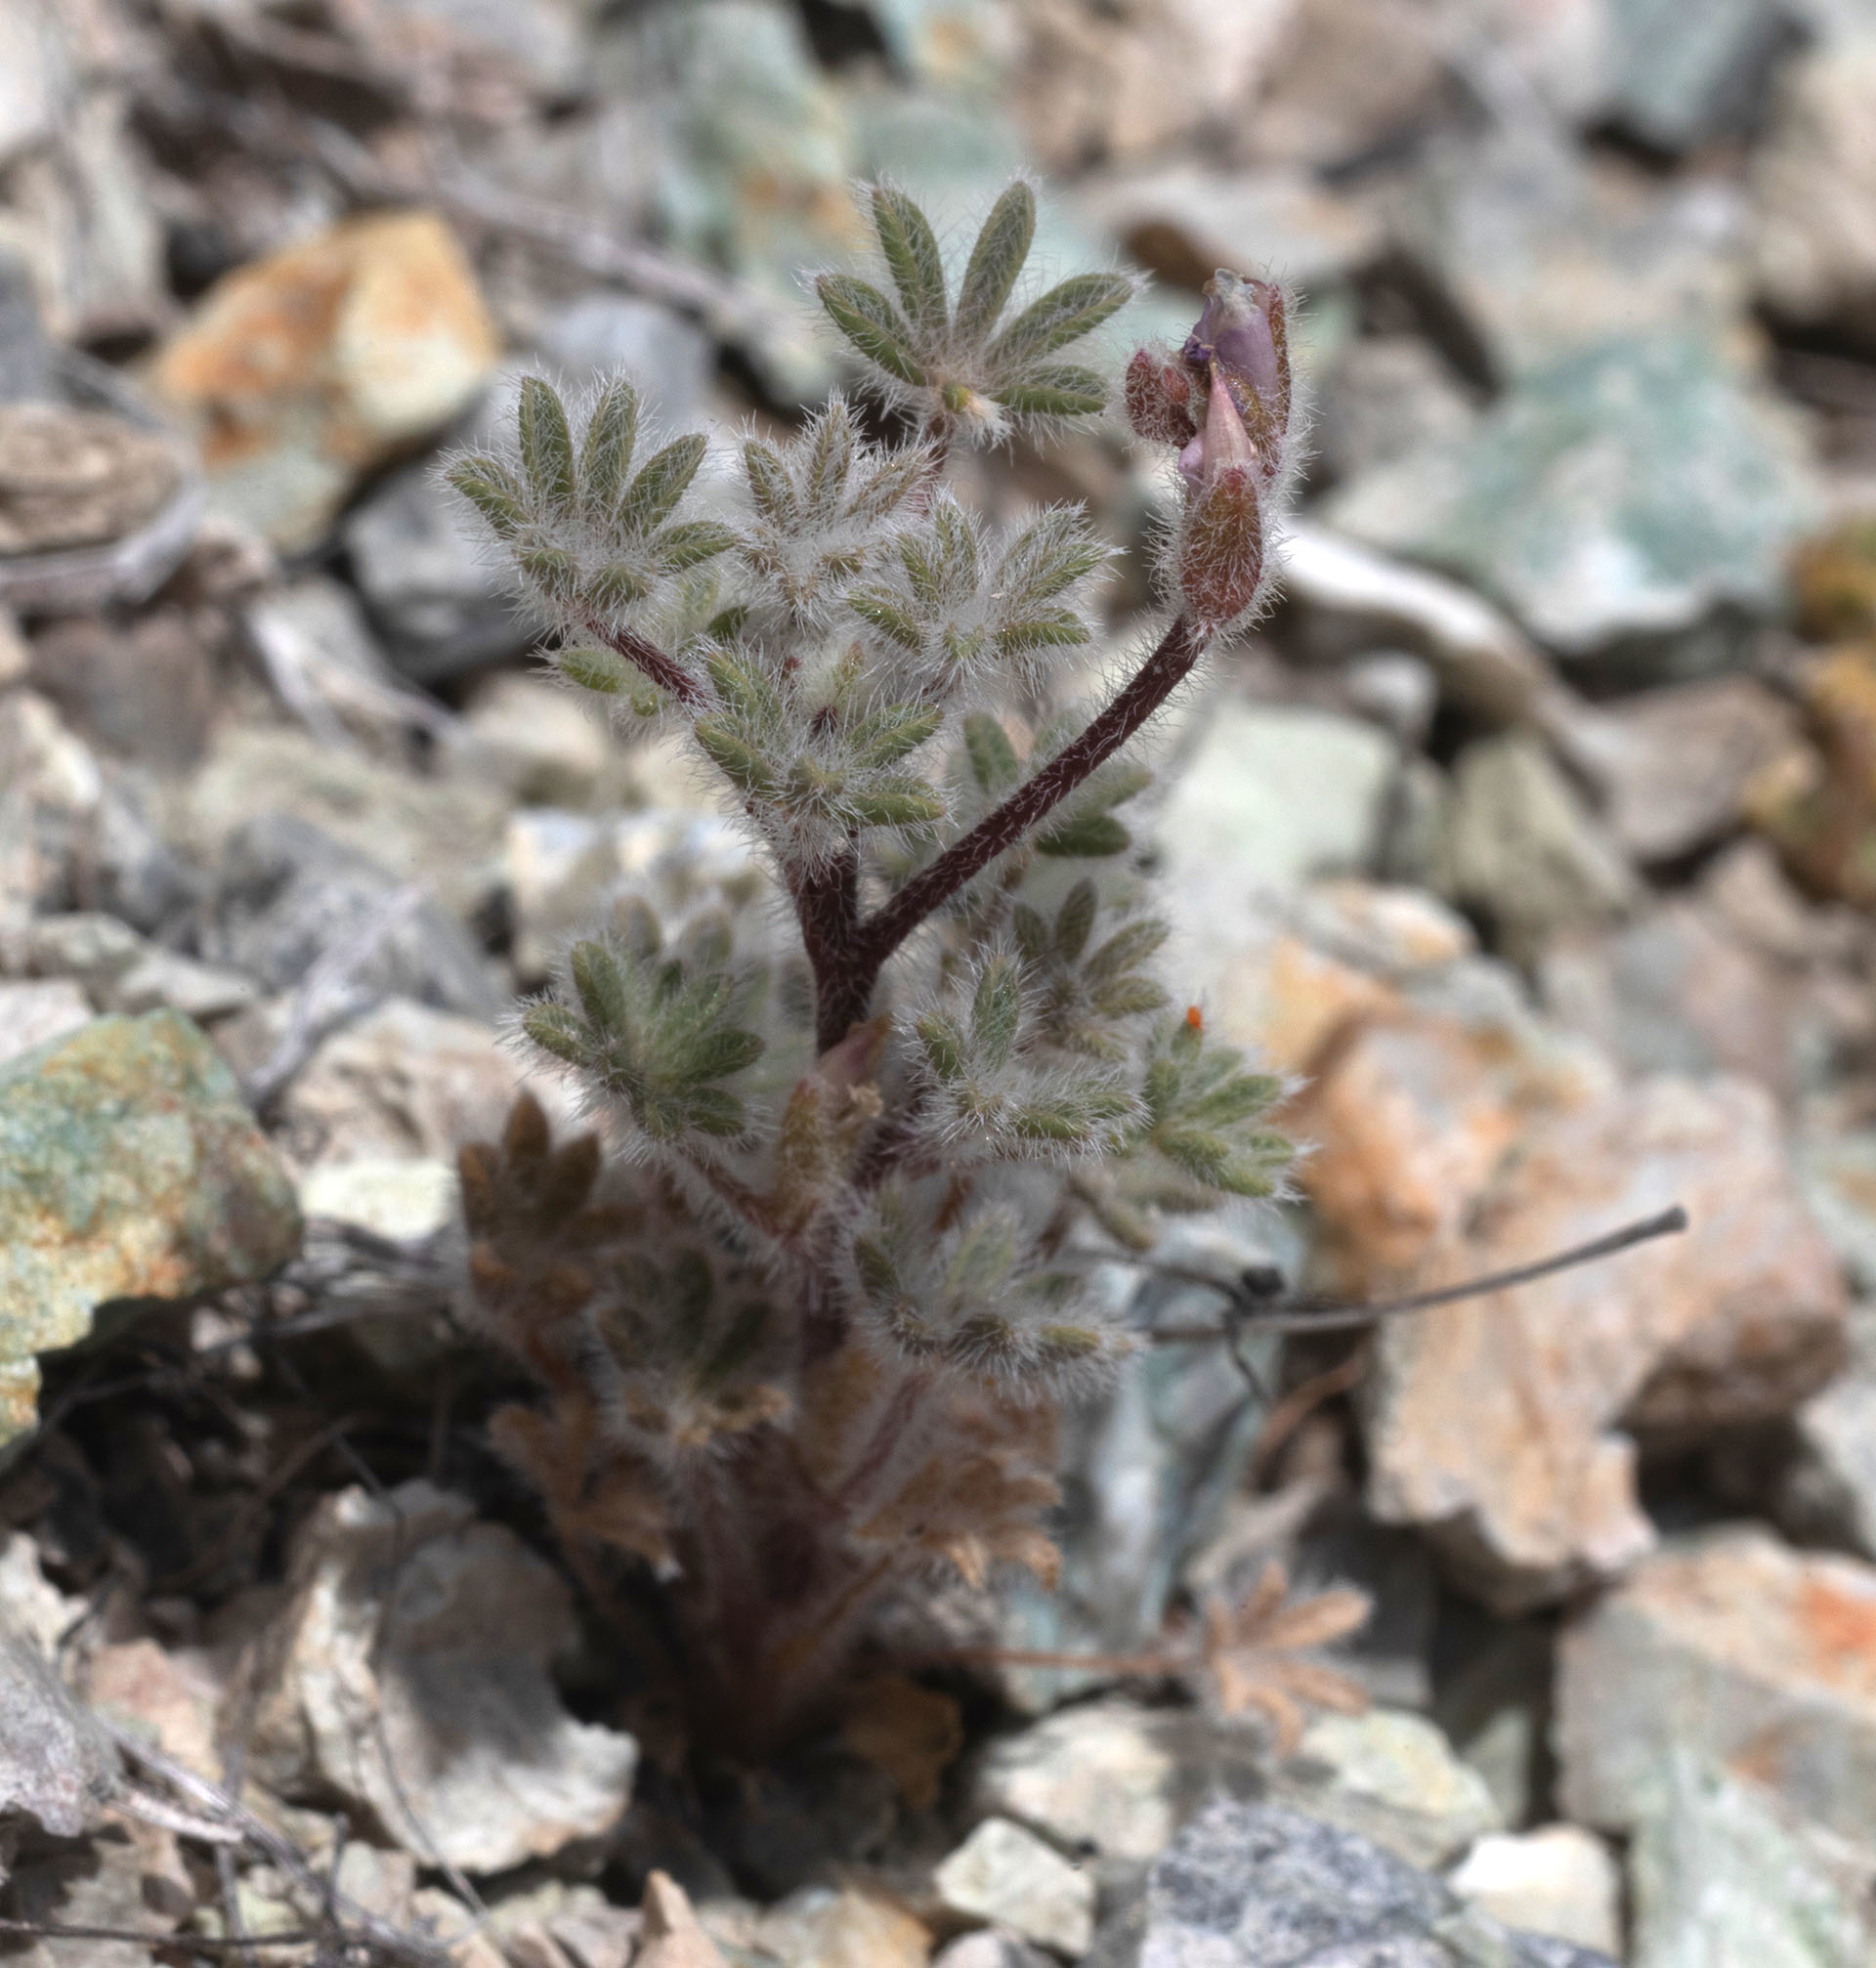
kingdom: Plantae
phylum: Tracheophyta
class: Magnoliopsida
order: Fabales
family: Fabaceae
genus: Lupinus
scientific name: Lupinus concinnus
